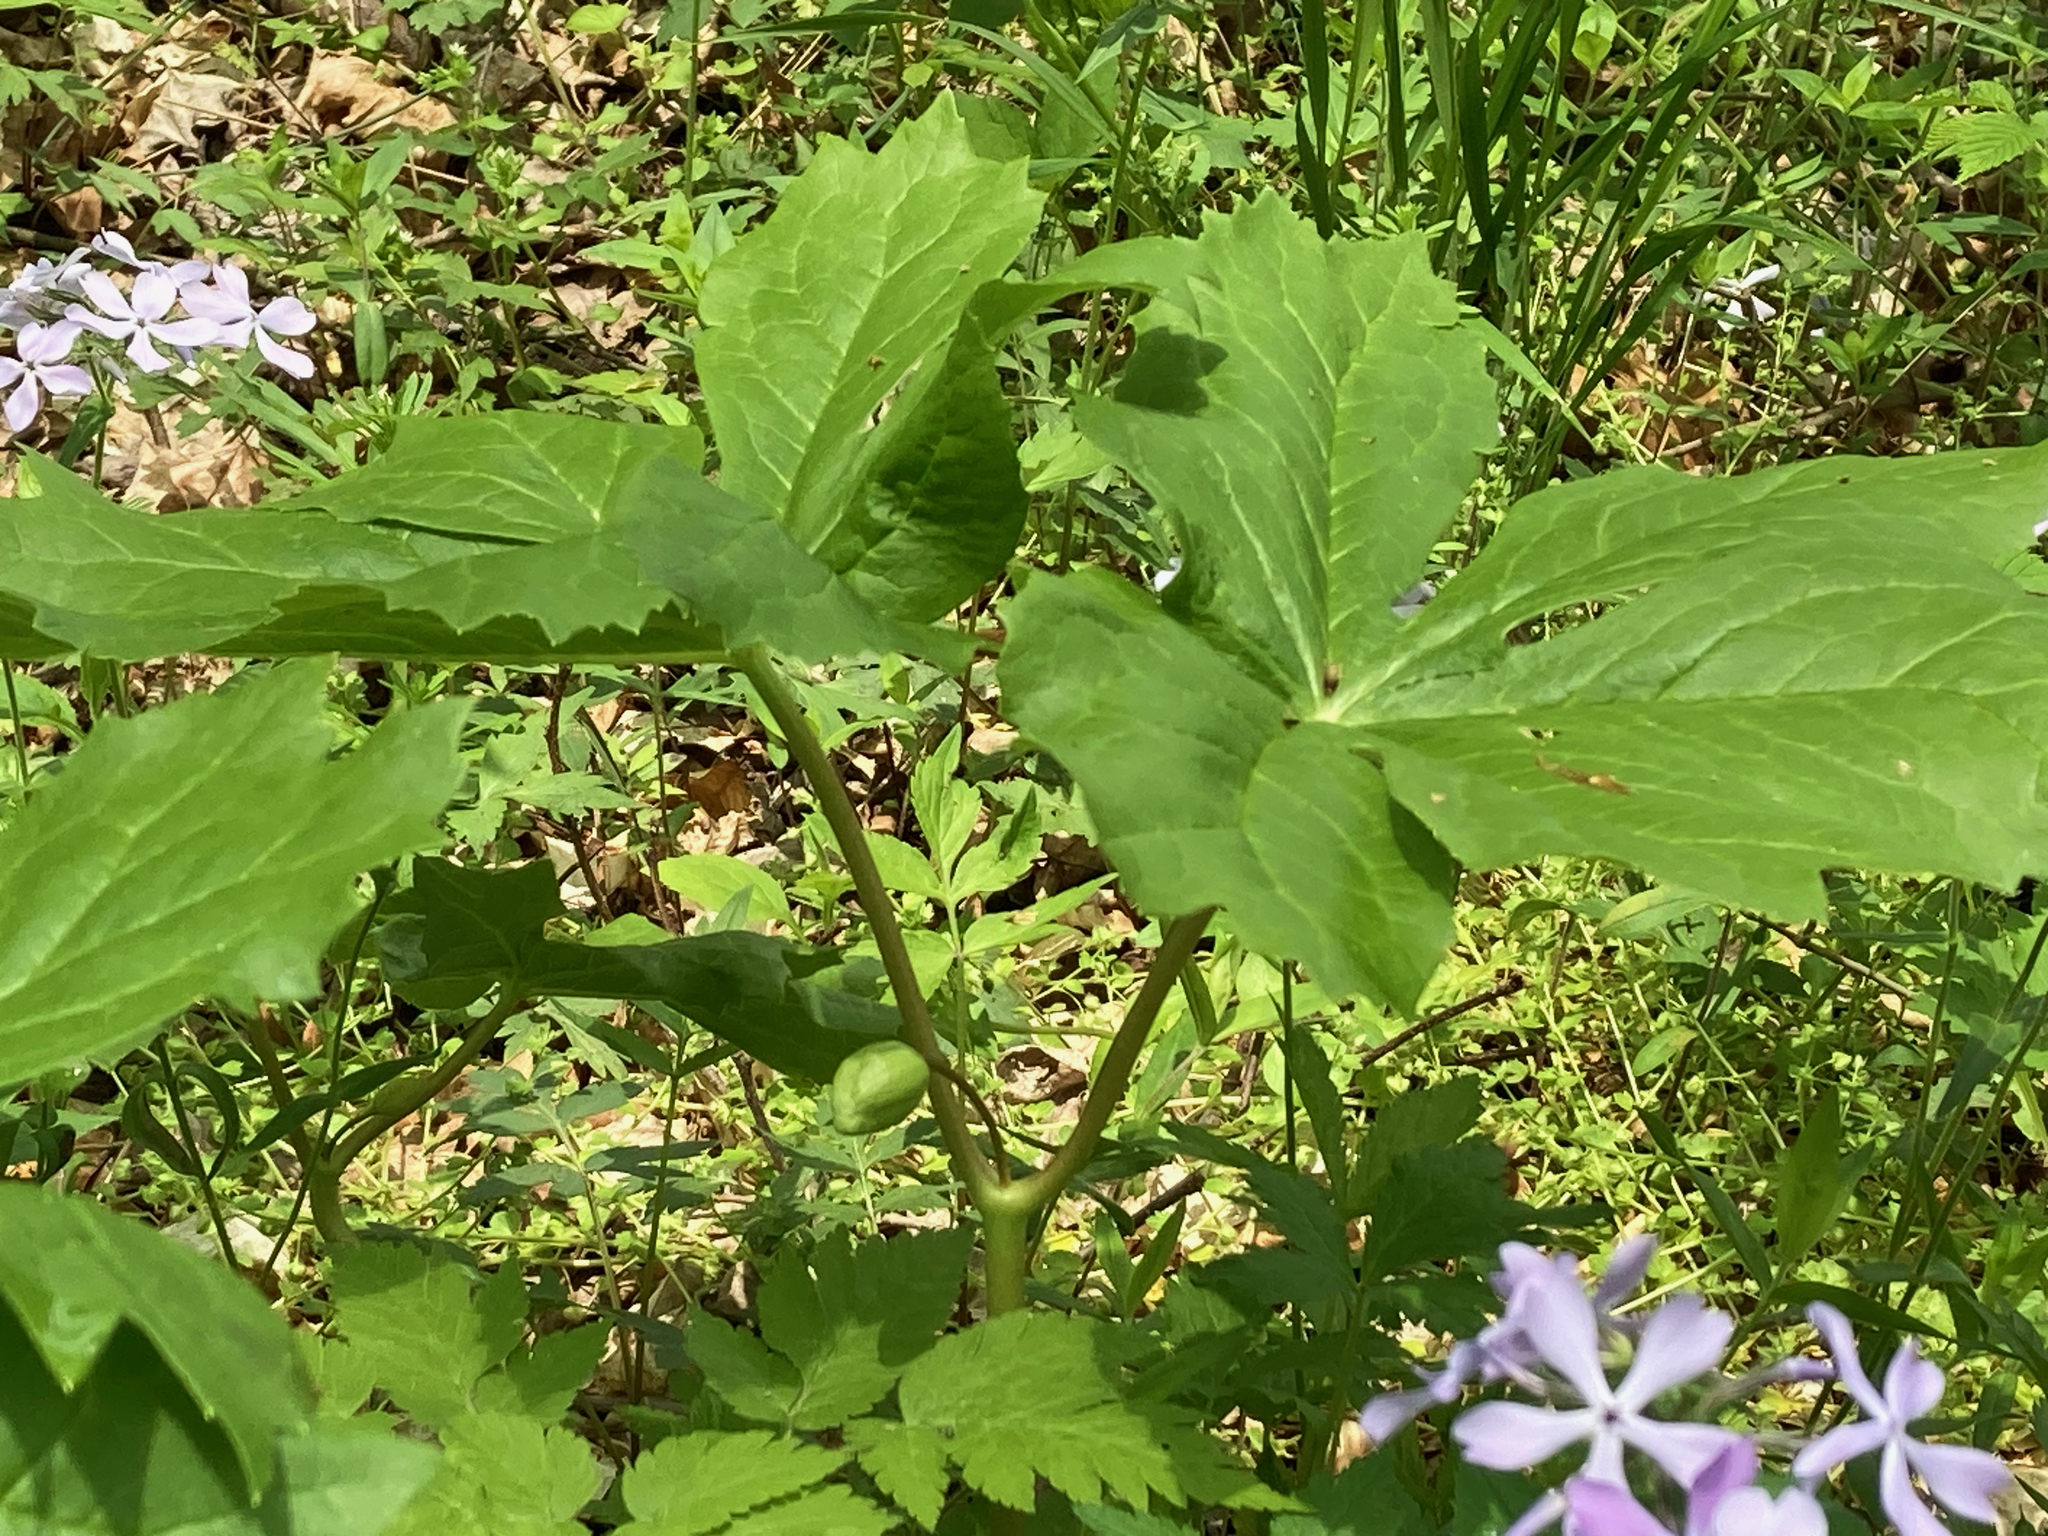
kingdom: Plantae
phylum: Tracheophyta
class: Magnoliopsida
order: Ranunculales
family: Berberidaceae
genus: Podophyllum
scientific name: Podophyllum peltatum
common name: Wild mandrake
